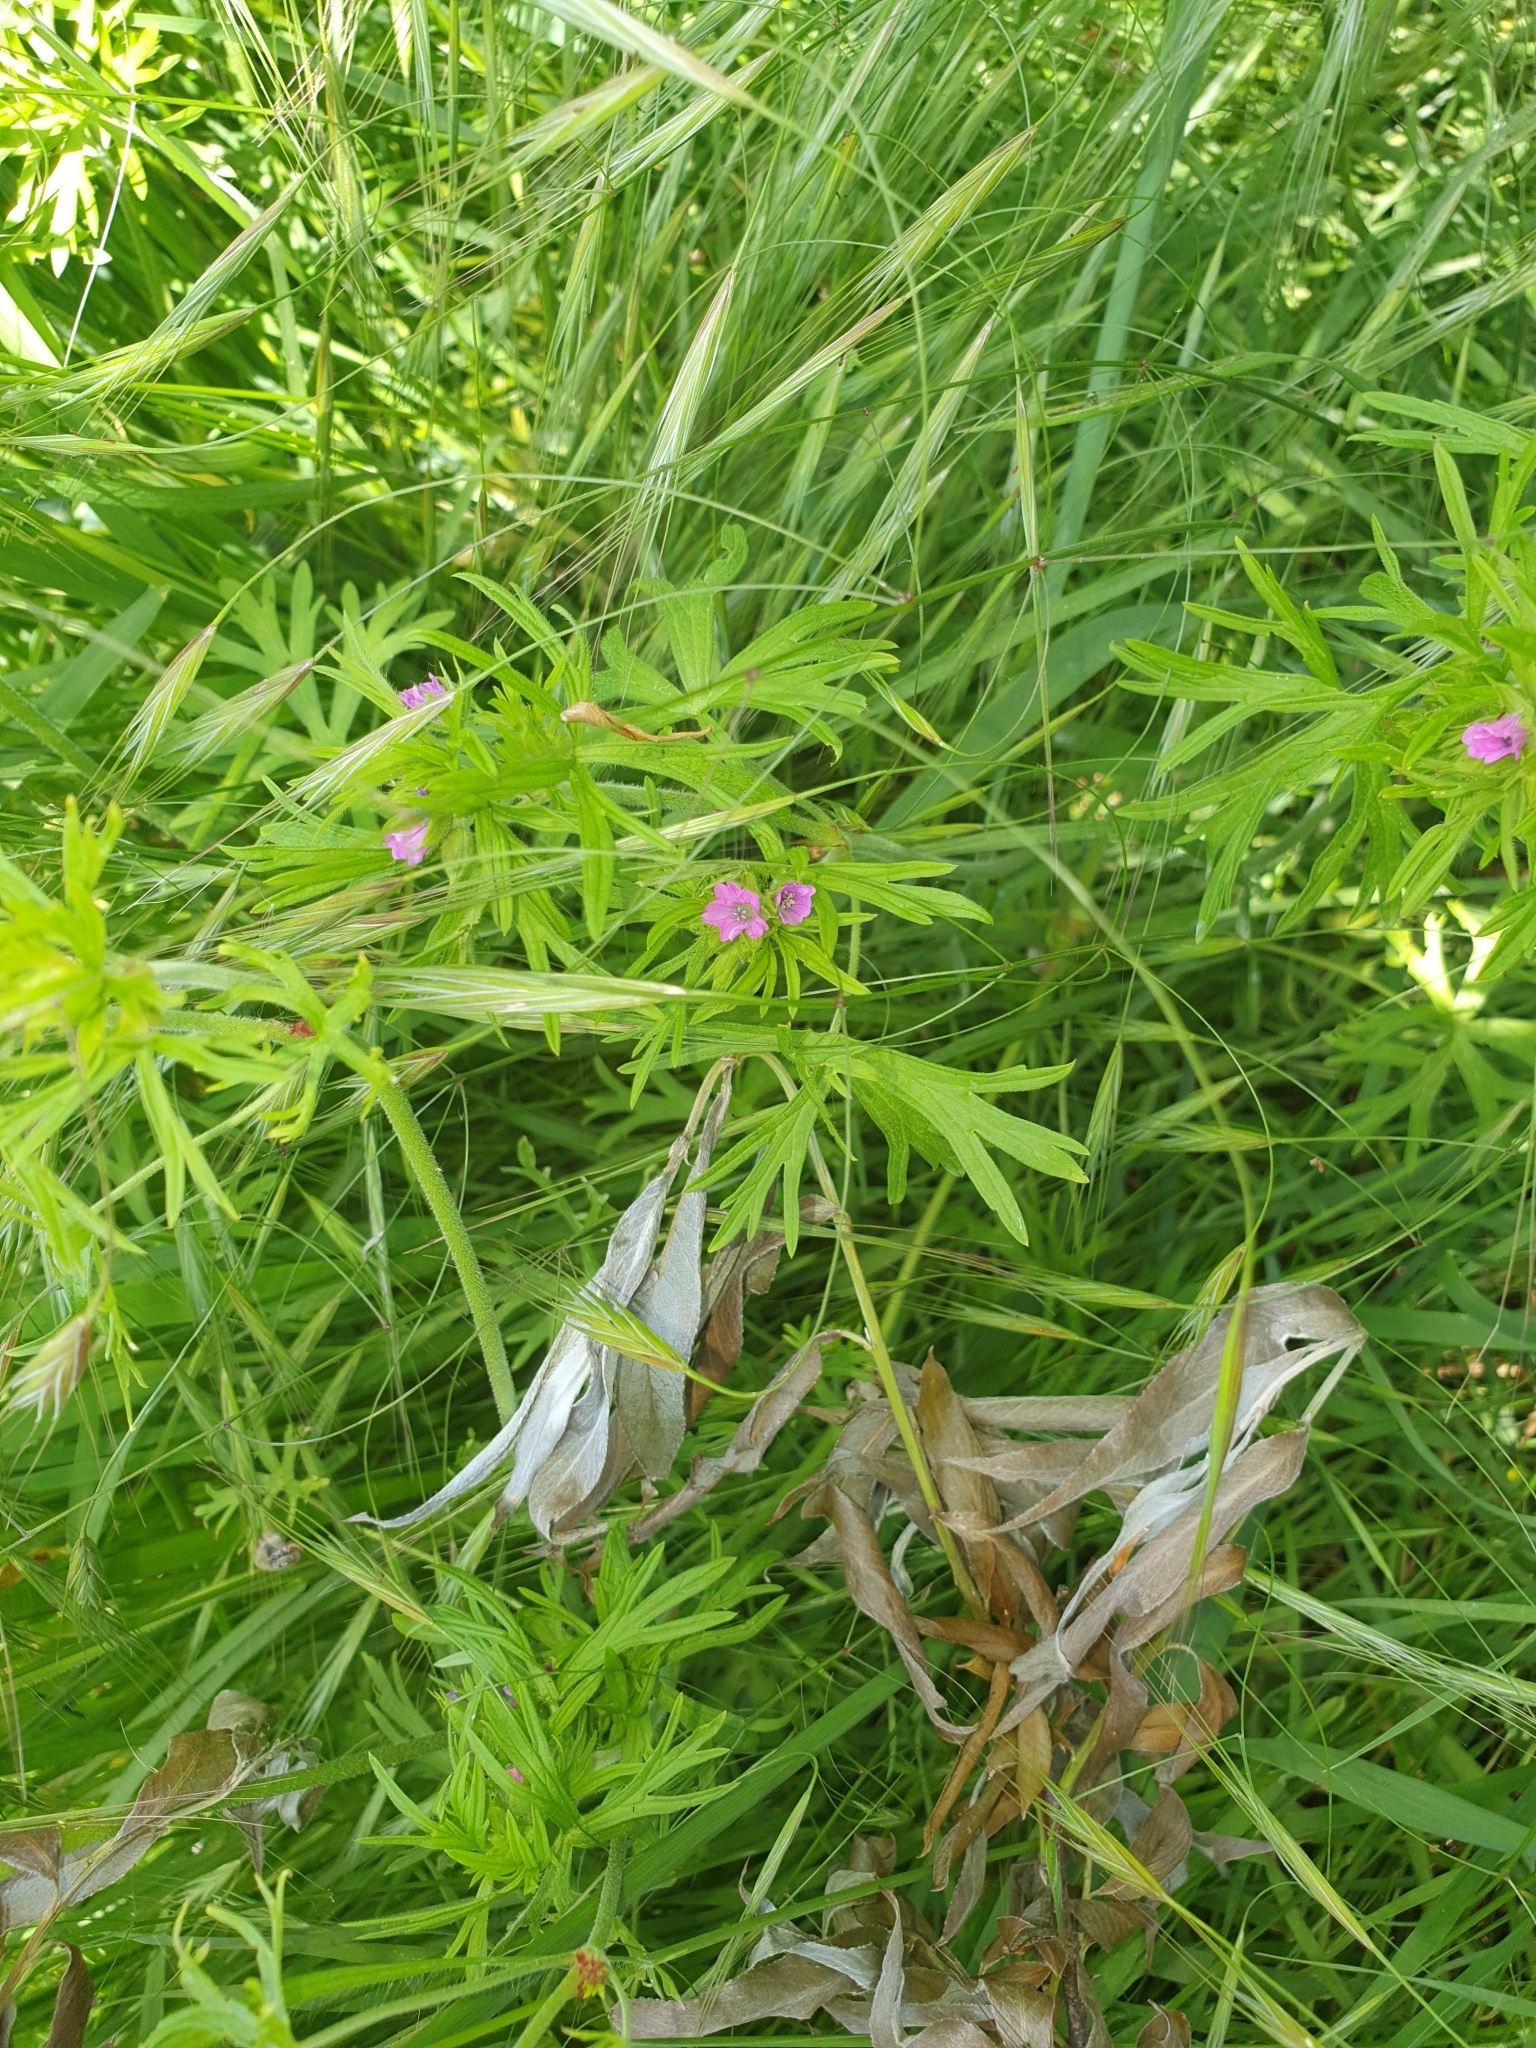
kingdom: Plantae
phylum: Tracheophyta
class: Magnoliopsida
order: Geraniales
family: Geraniaceae
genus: Geranium
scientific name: Geranium dissectum
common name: Cut-leaved crane's-bill
